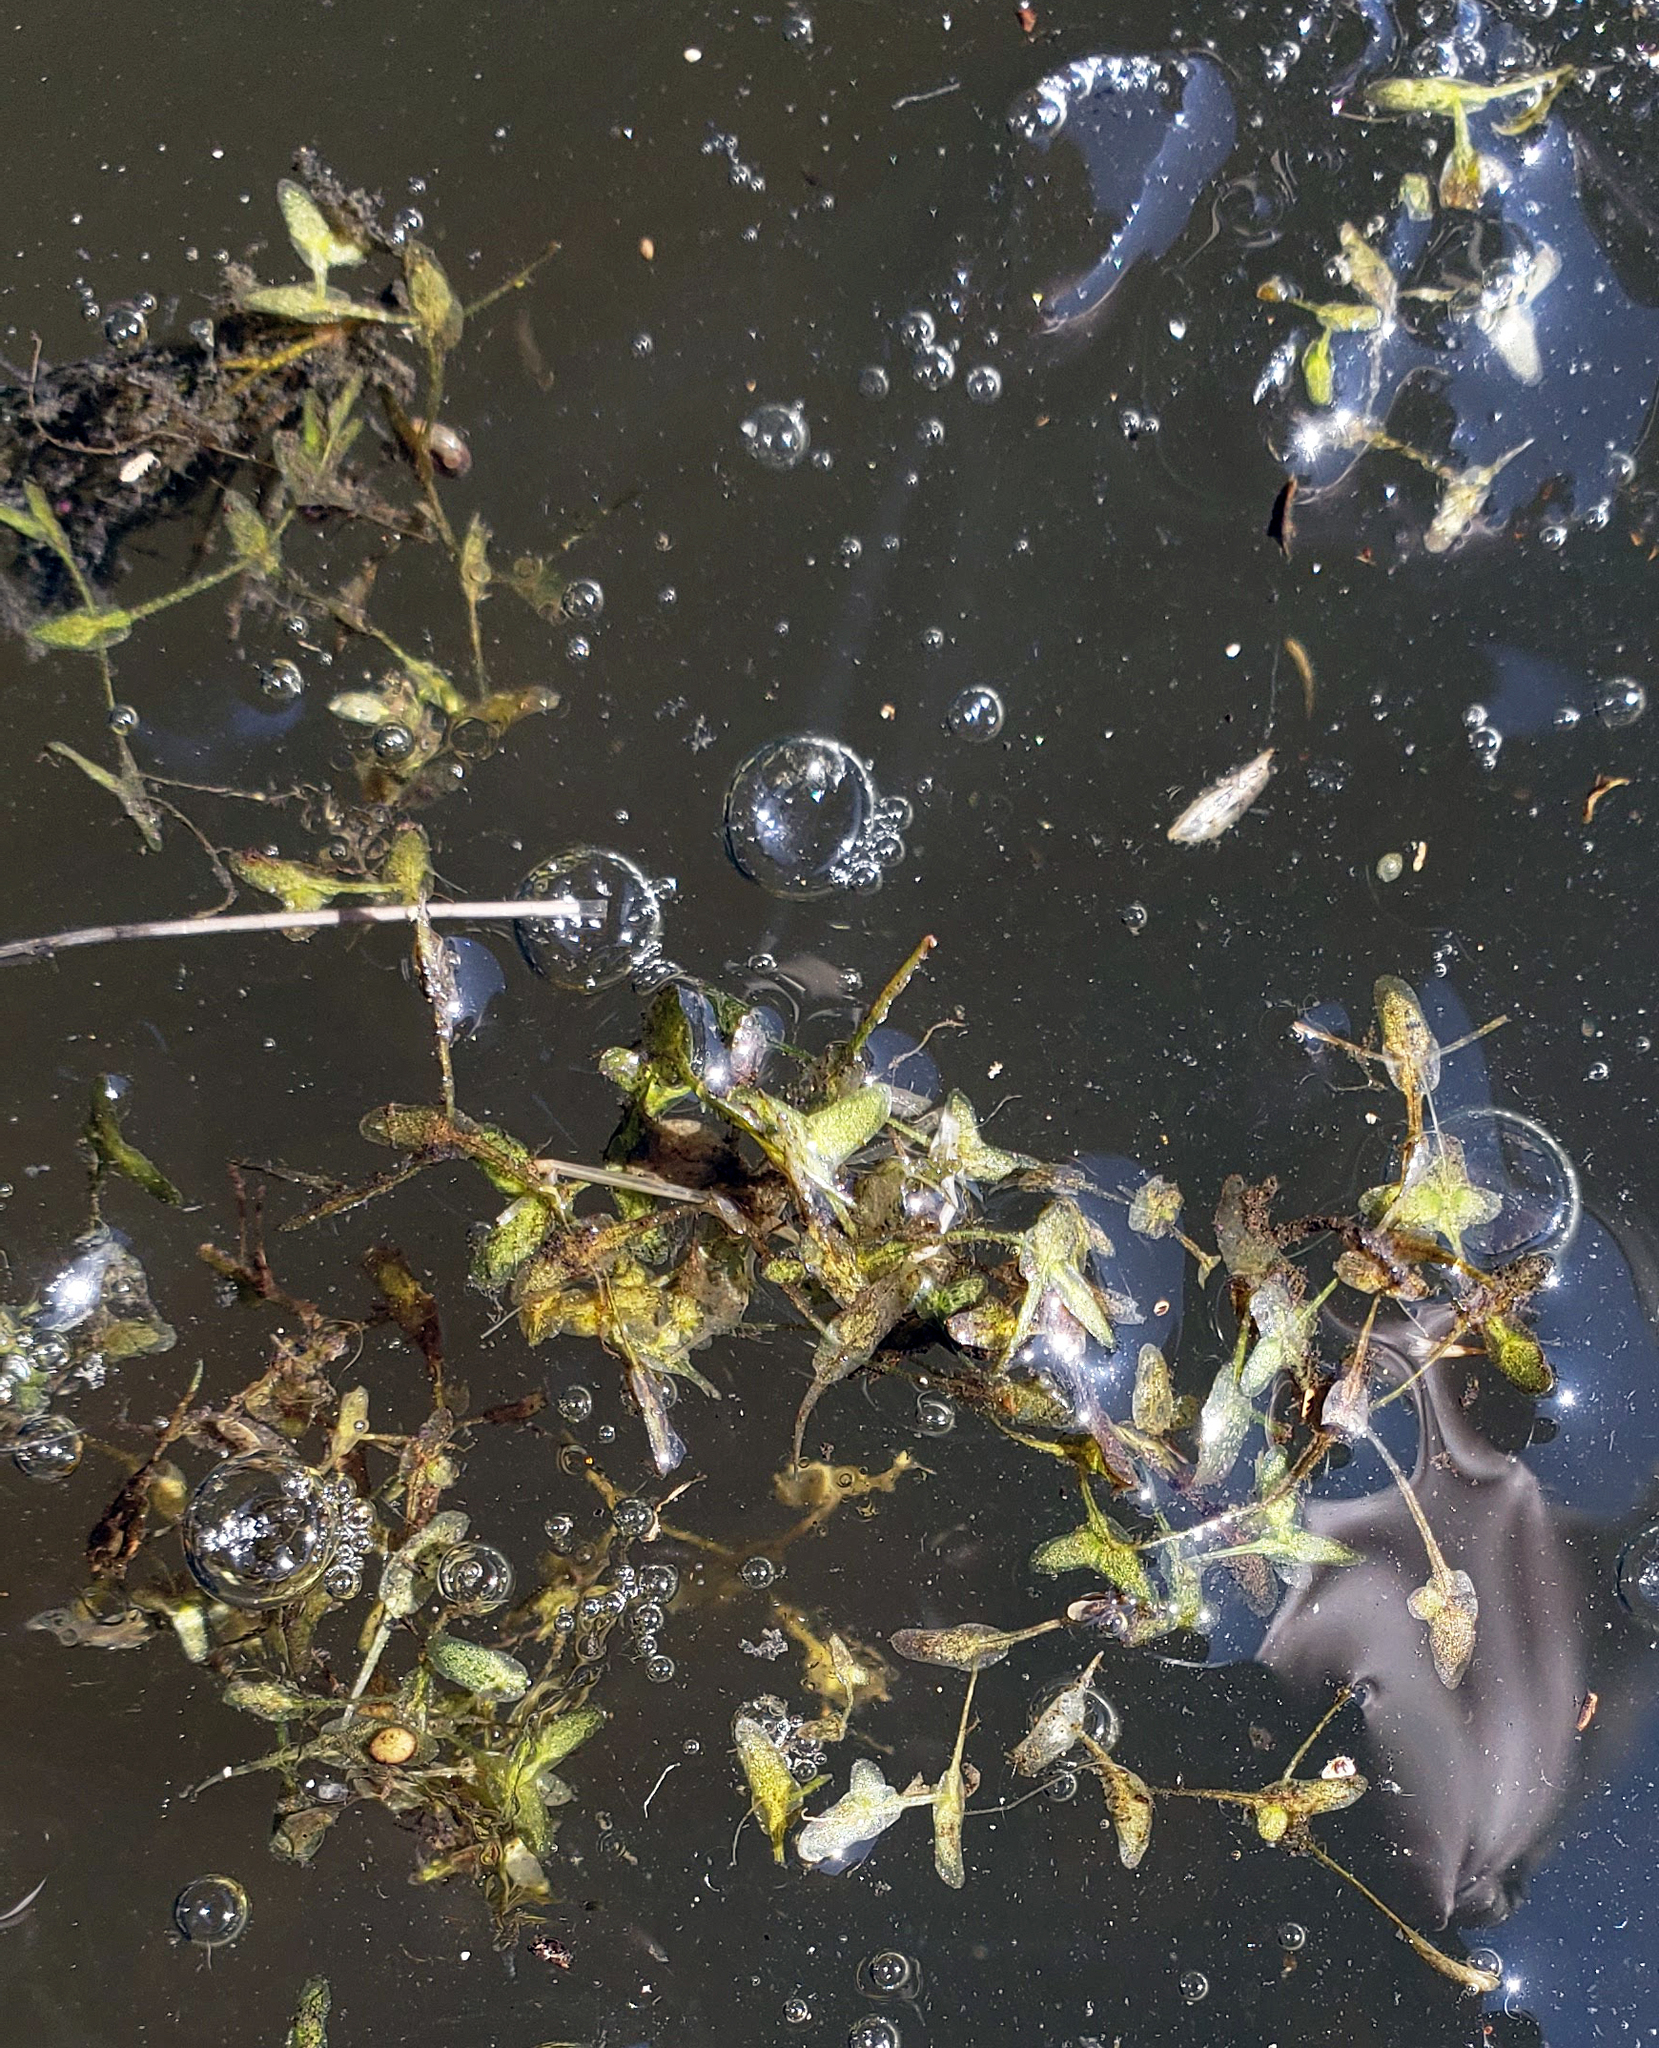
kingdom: Plantae
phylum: Tracheophyta
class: Liliopsida
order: Alismatales
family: Araceae
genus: Lemna
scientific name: Lemna trisulca
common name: Ivy-leaved duckweed
